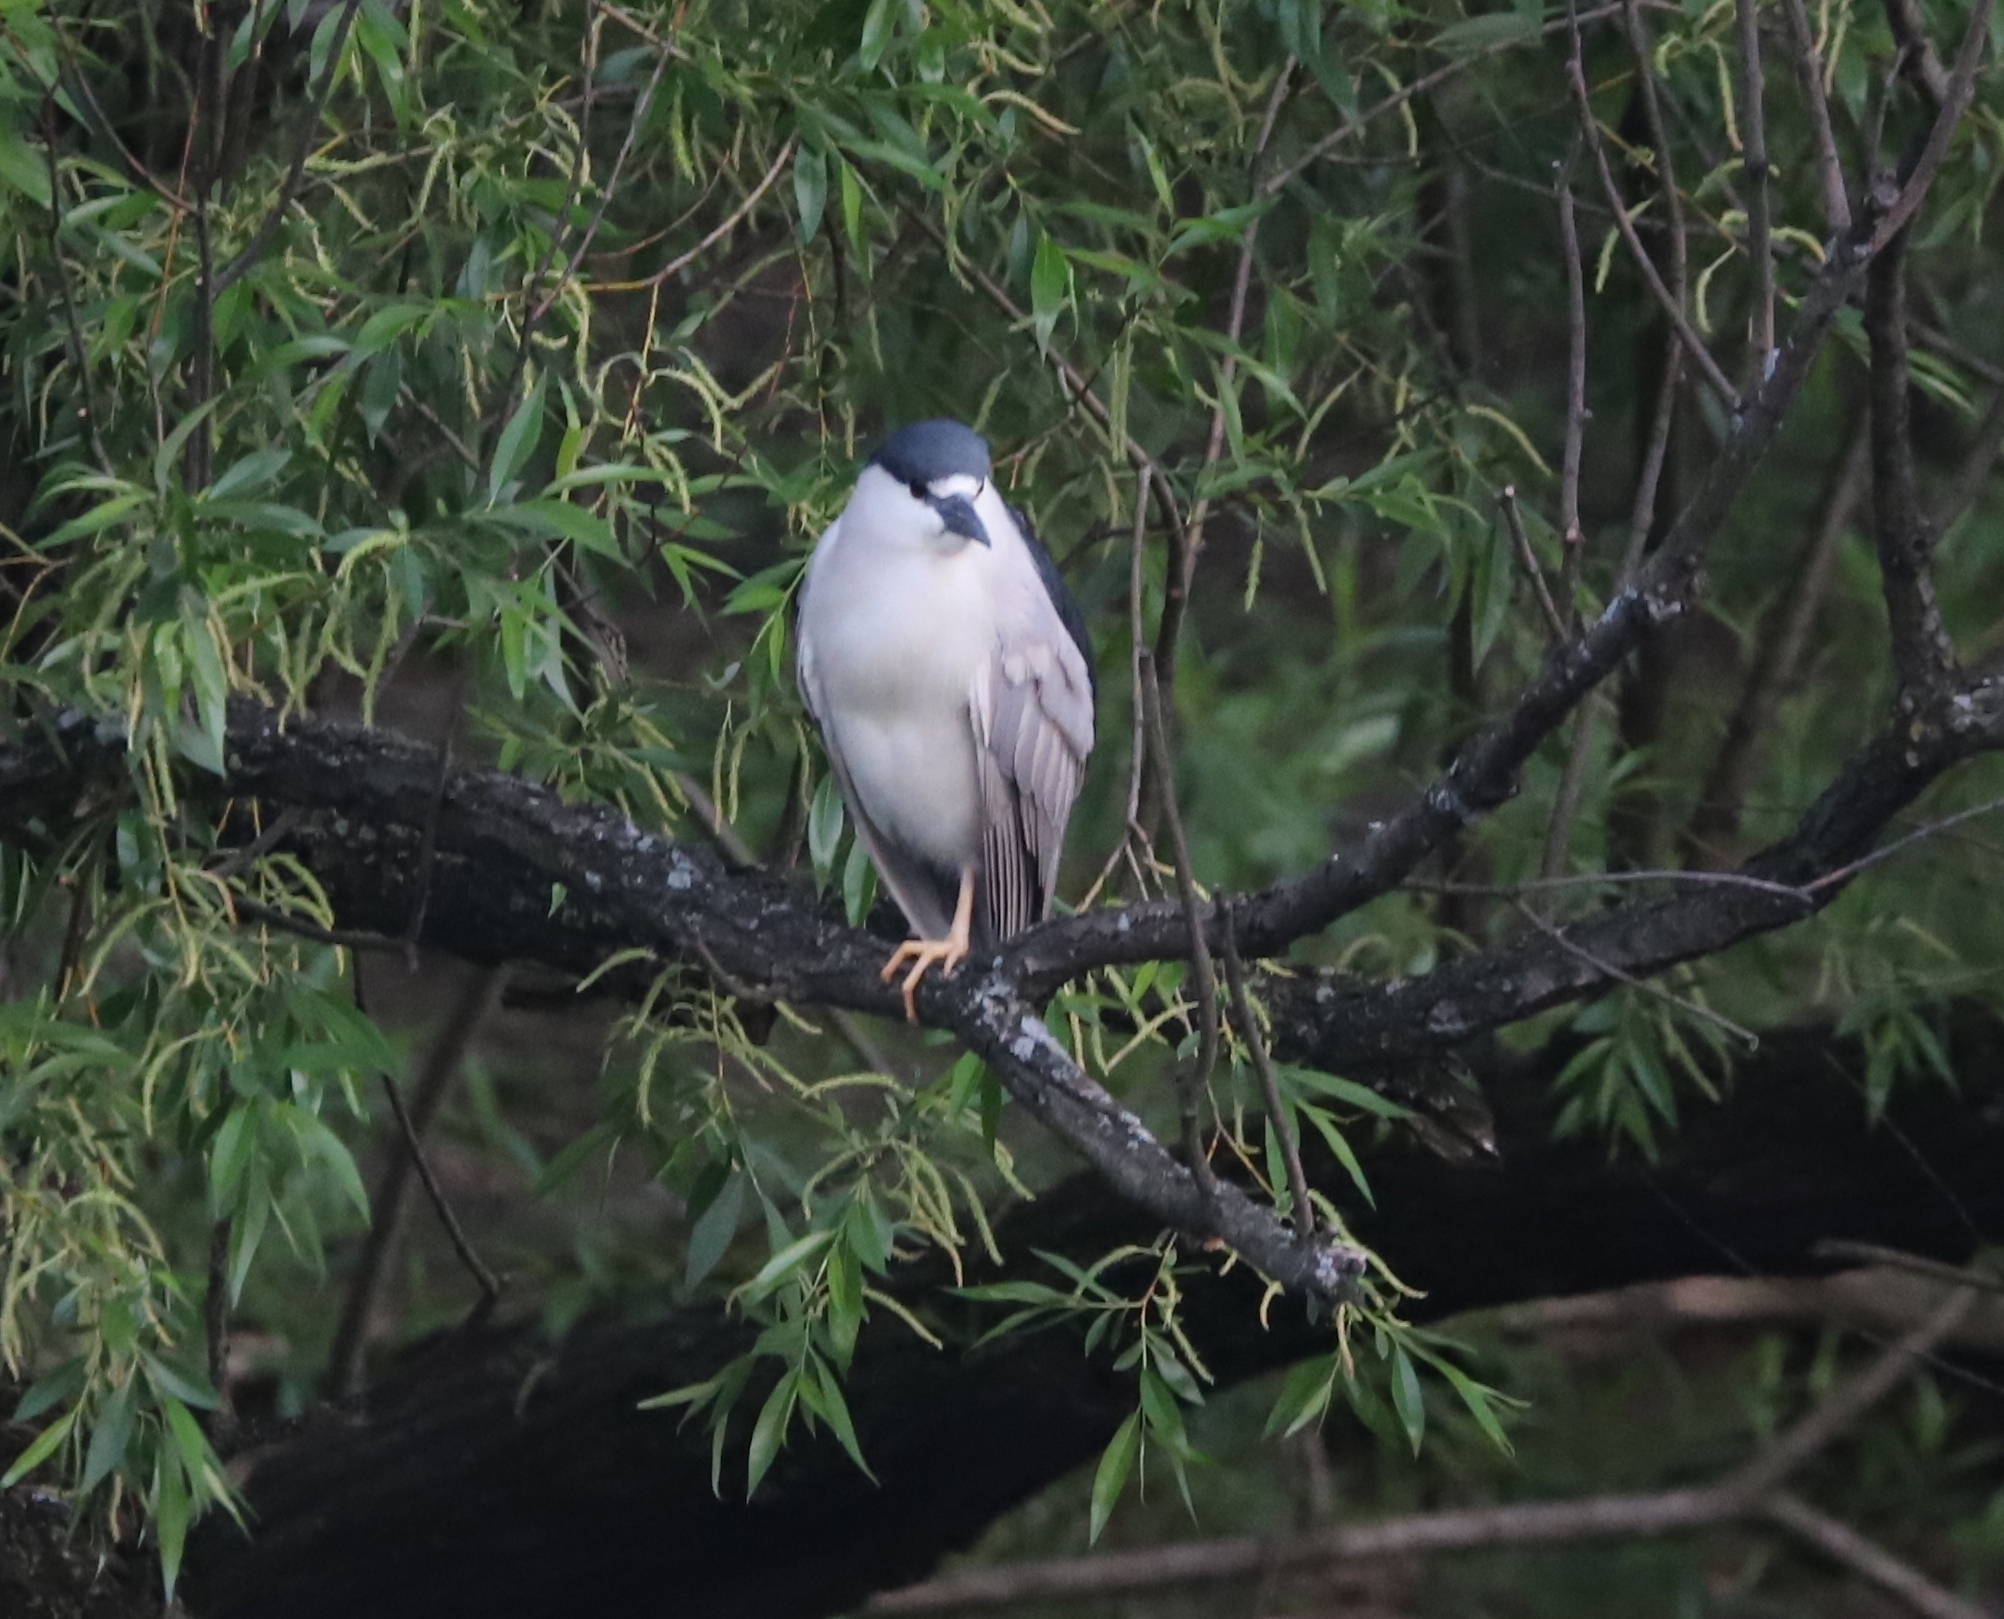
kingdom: Animalia
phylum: Chordata
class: Aves
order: Pelecaniformes
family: Ardeidae
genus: Nycticorax
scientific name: Nycticorax nycticorax
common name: Black-crowned night heron
